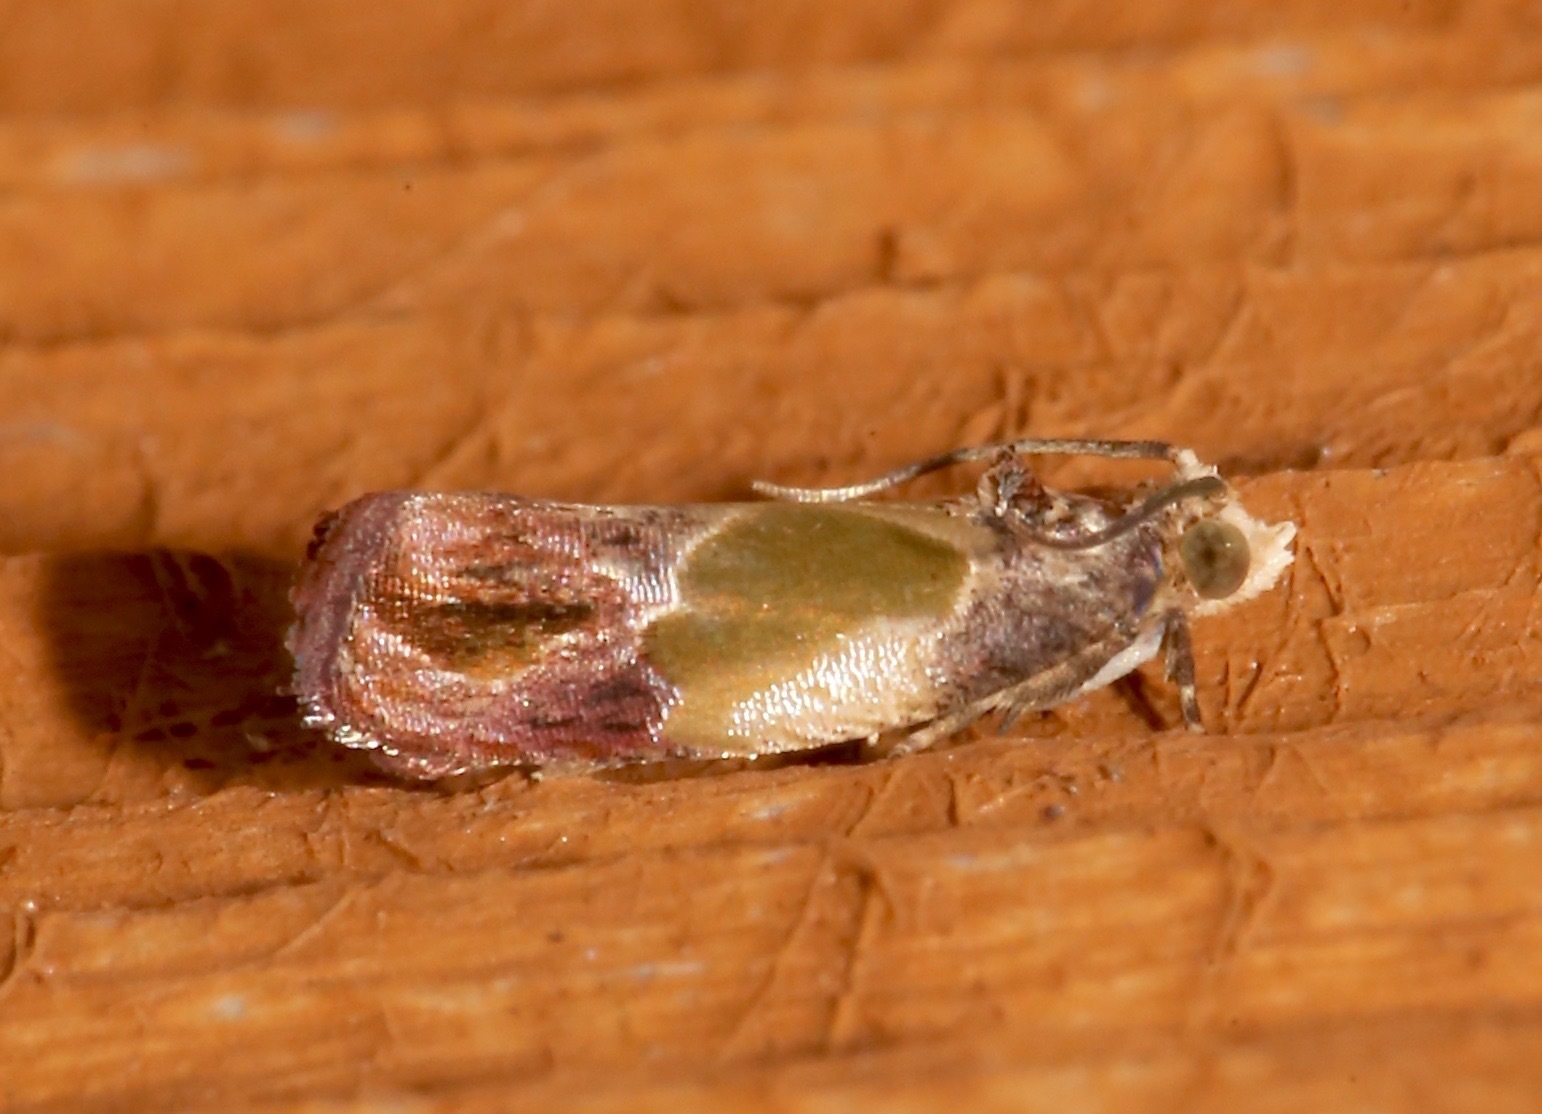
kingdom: Animalia
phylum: Arthropoda
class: Insecta
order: Lepidoptera
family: Tortricidae
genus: Eumarozia
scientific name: Eumarozia malachitana
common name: Sculptured moth
